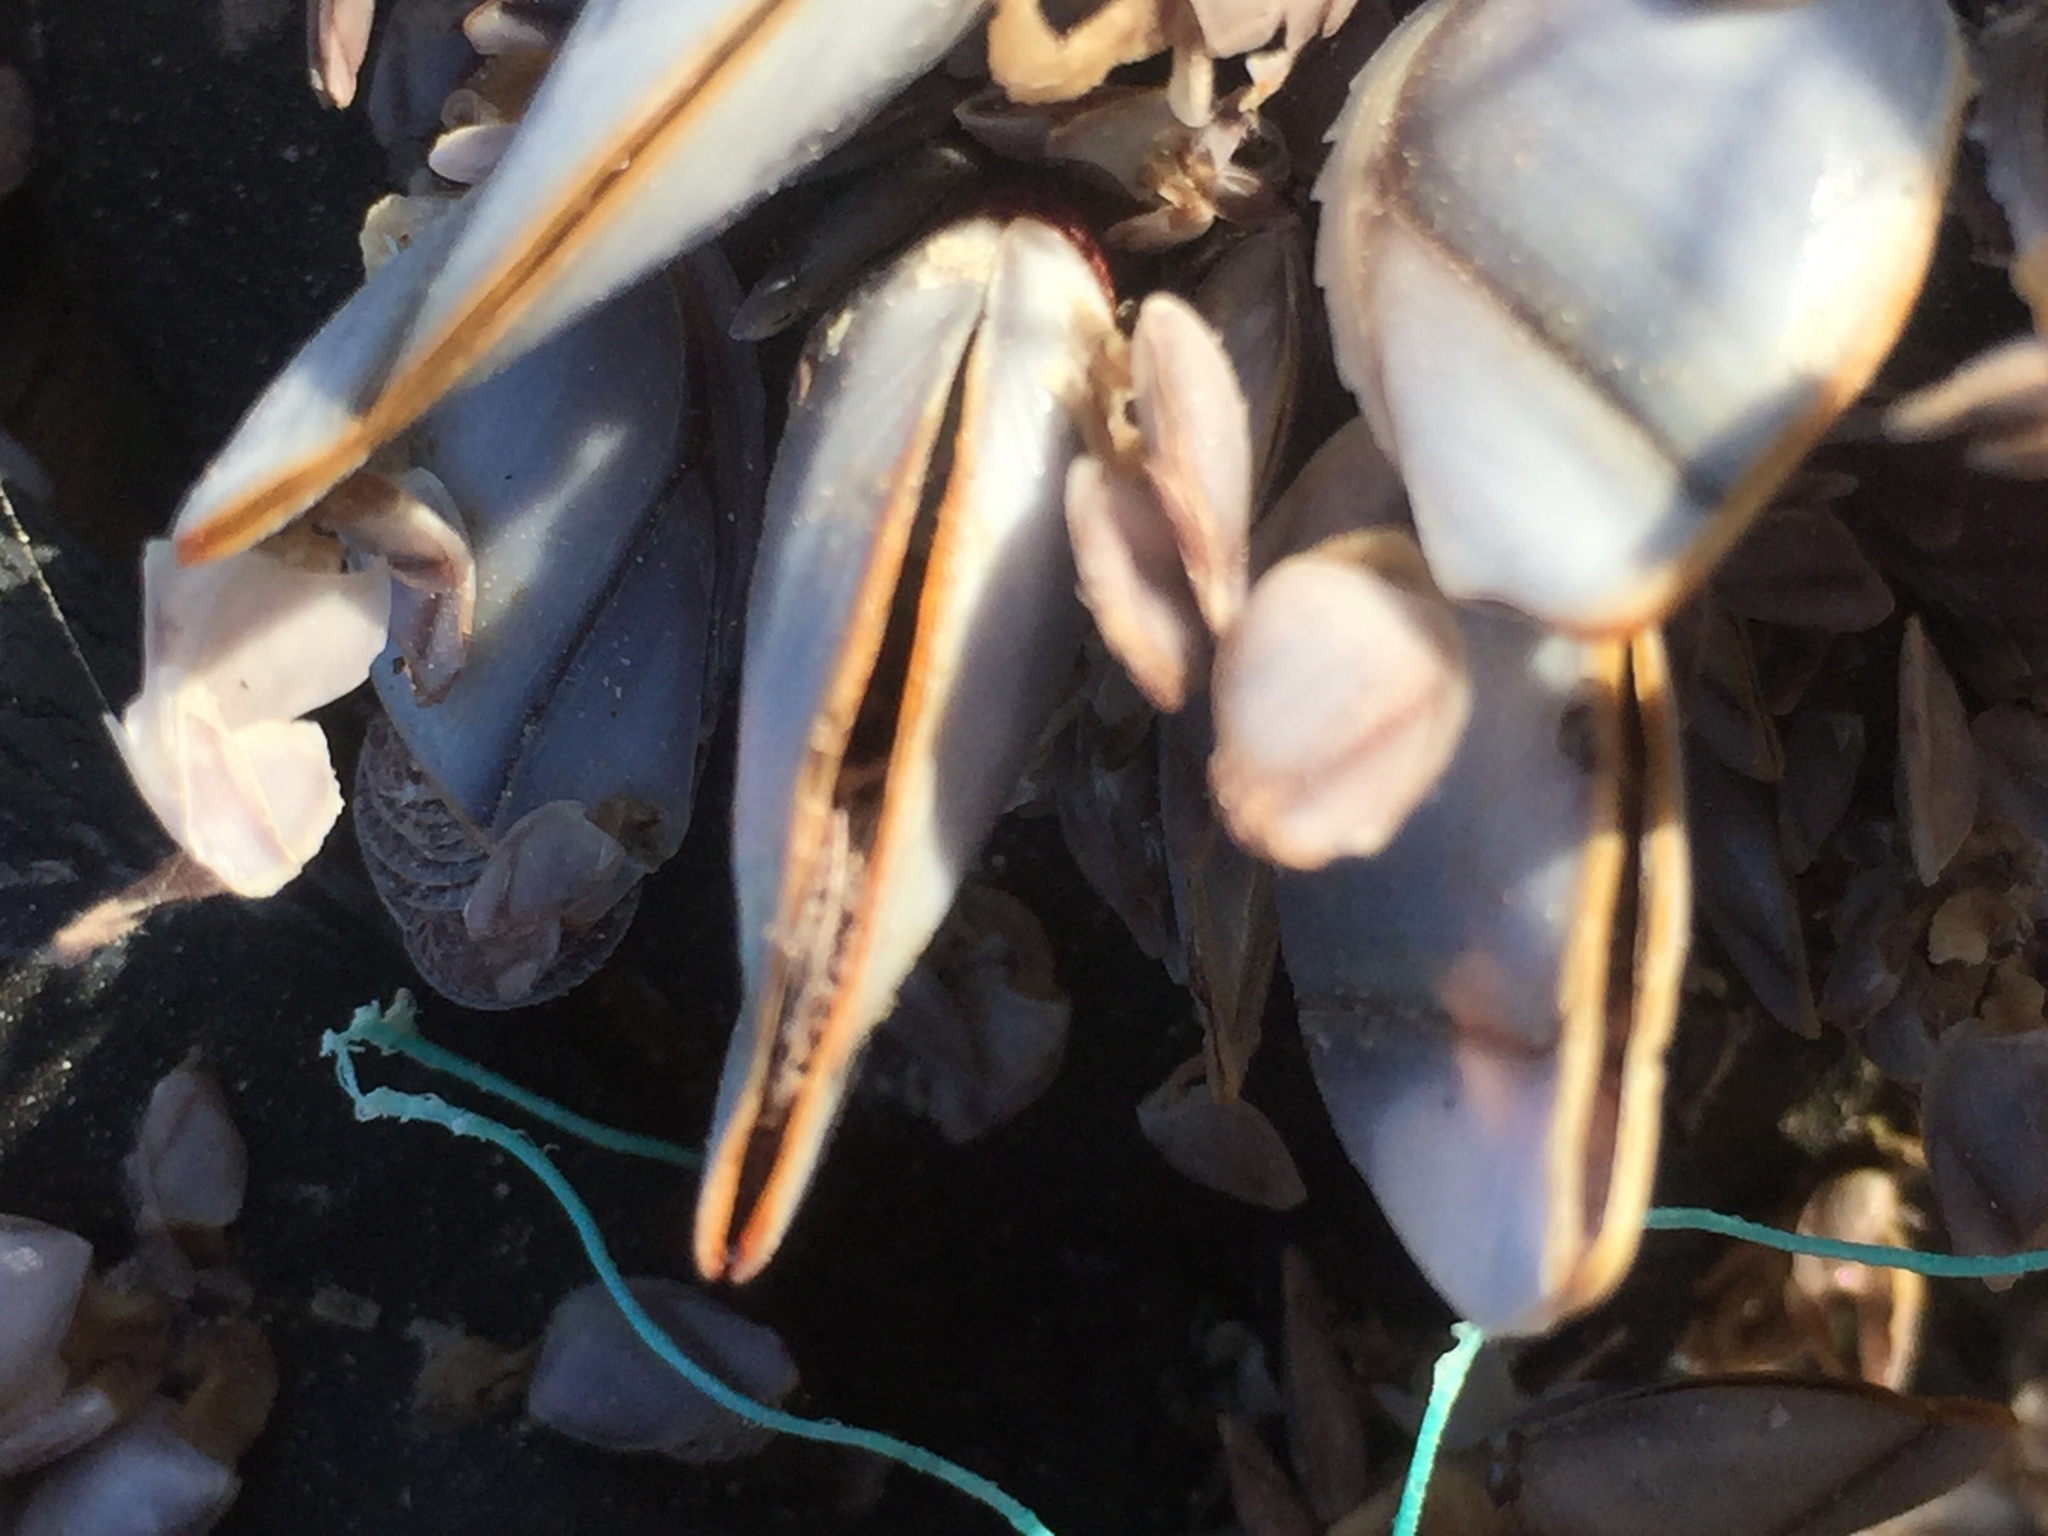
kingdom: Animalia
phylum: Arthropoda
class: Maxillopoda
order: Pedunculata
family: Lepadidae
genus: Lepas
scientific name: Lepas anatifera
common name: Common goose barnacle
